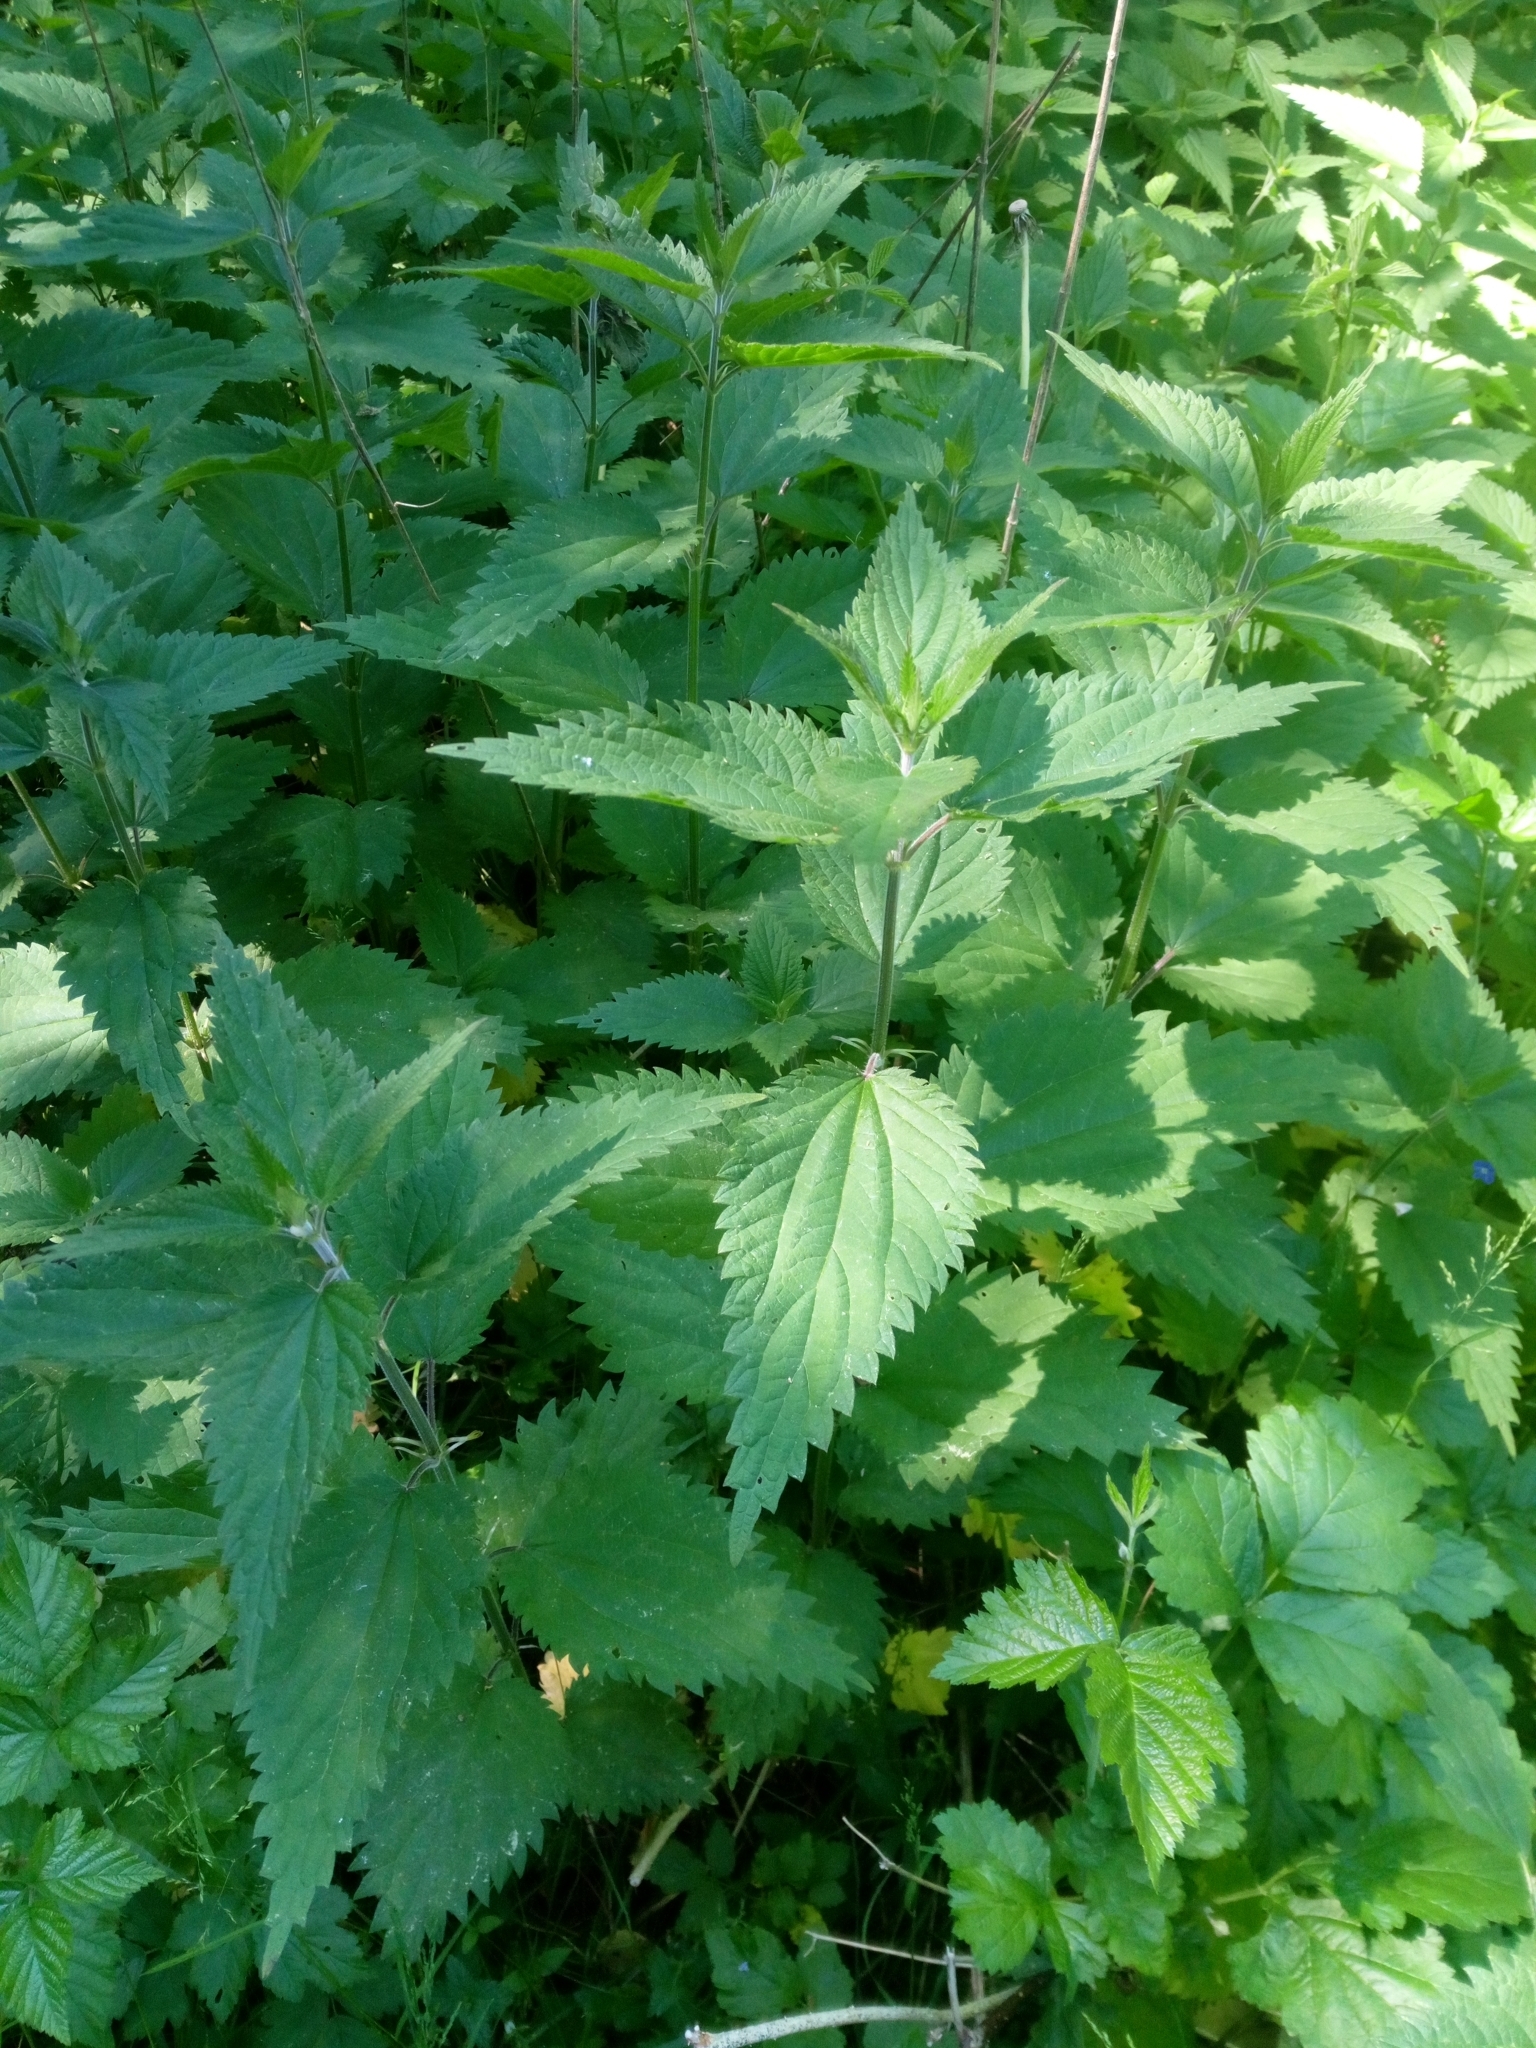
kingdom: Plantae
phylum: Tracheophyta
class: Magnoliopsida
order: Rosales
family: Urticaceae
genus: Urtica
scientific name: Urtica dioica
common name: Common nettle
